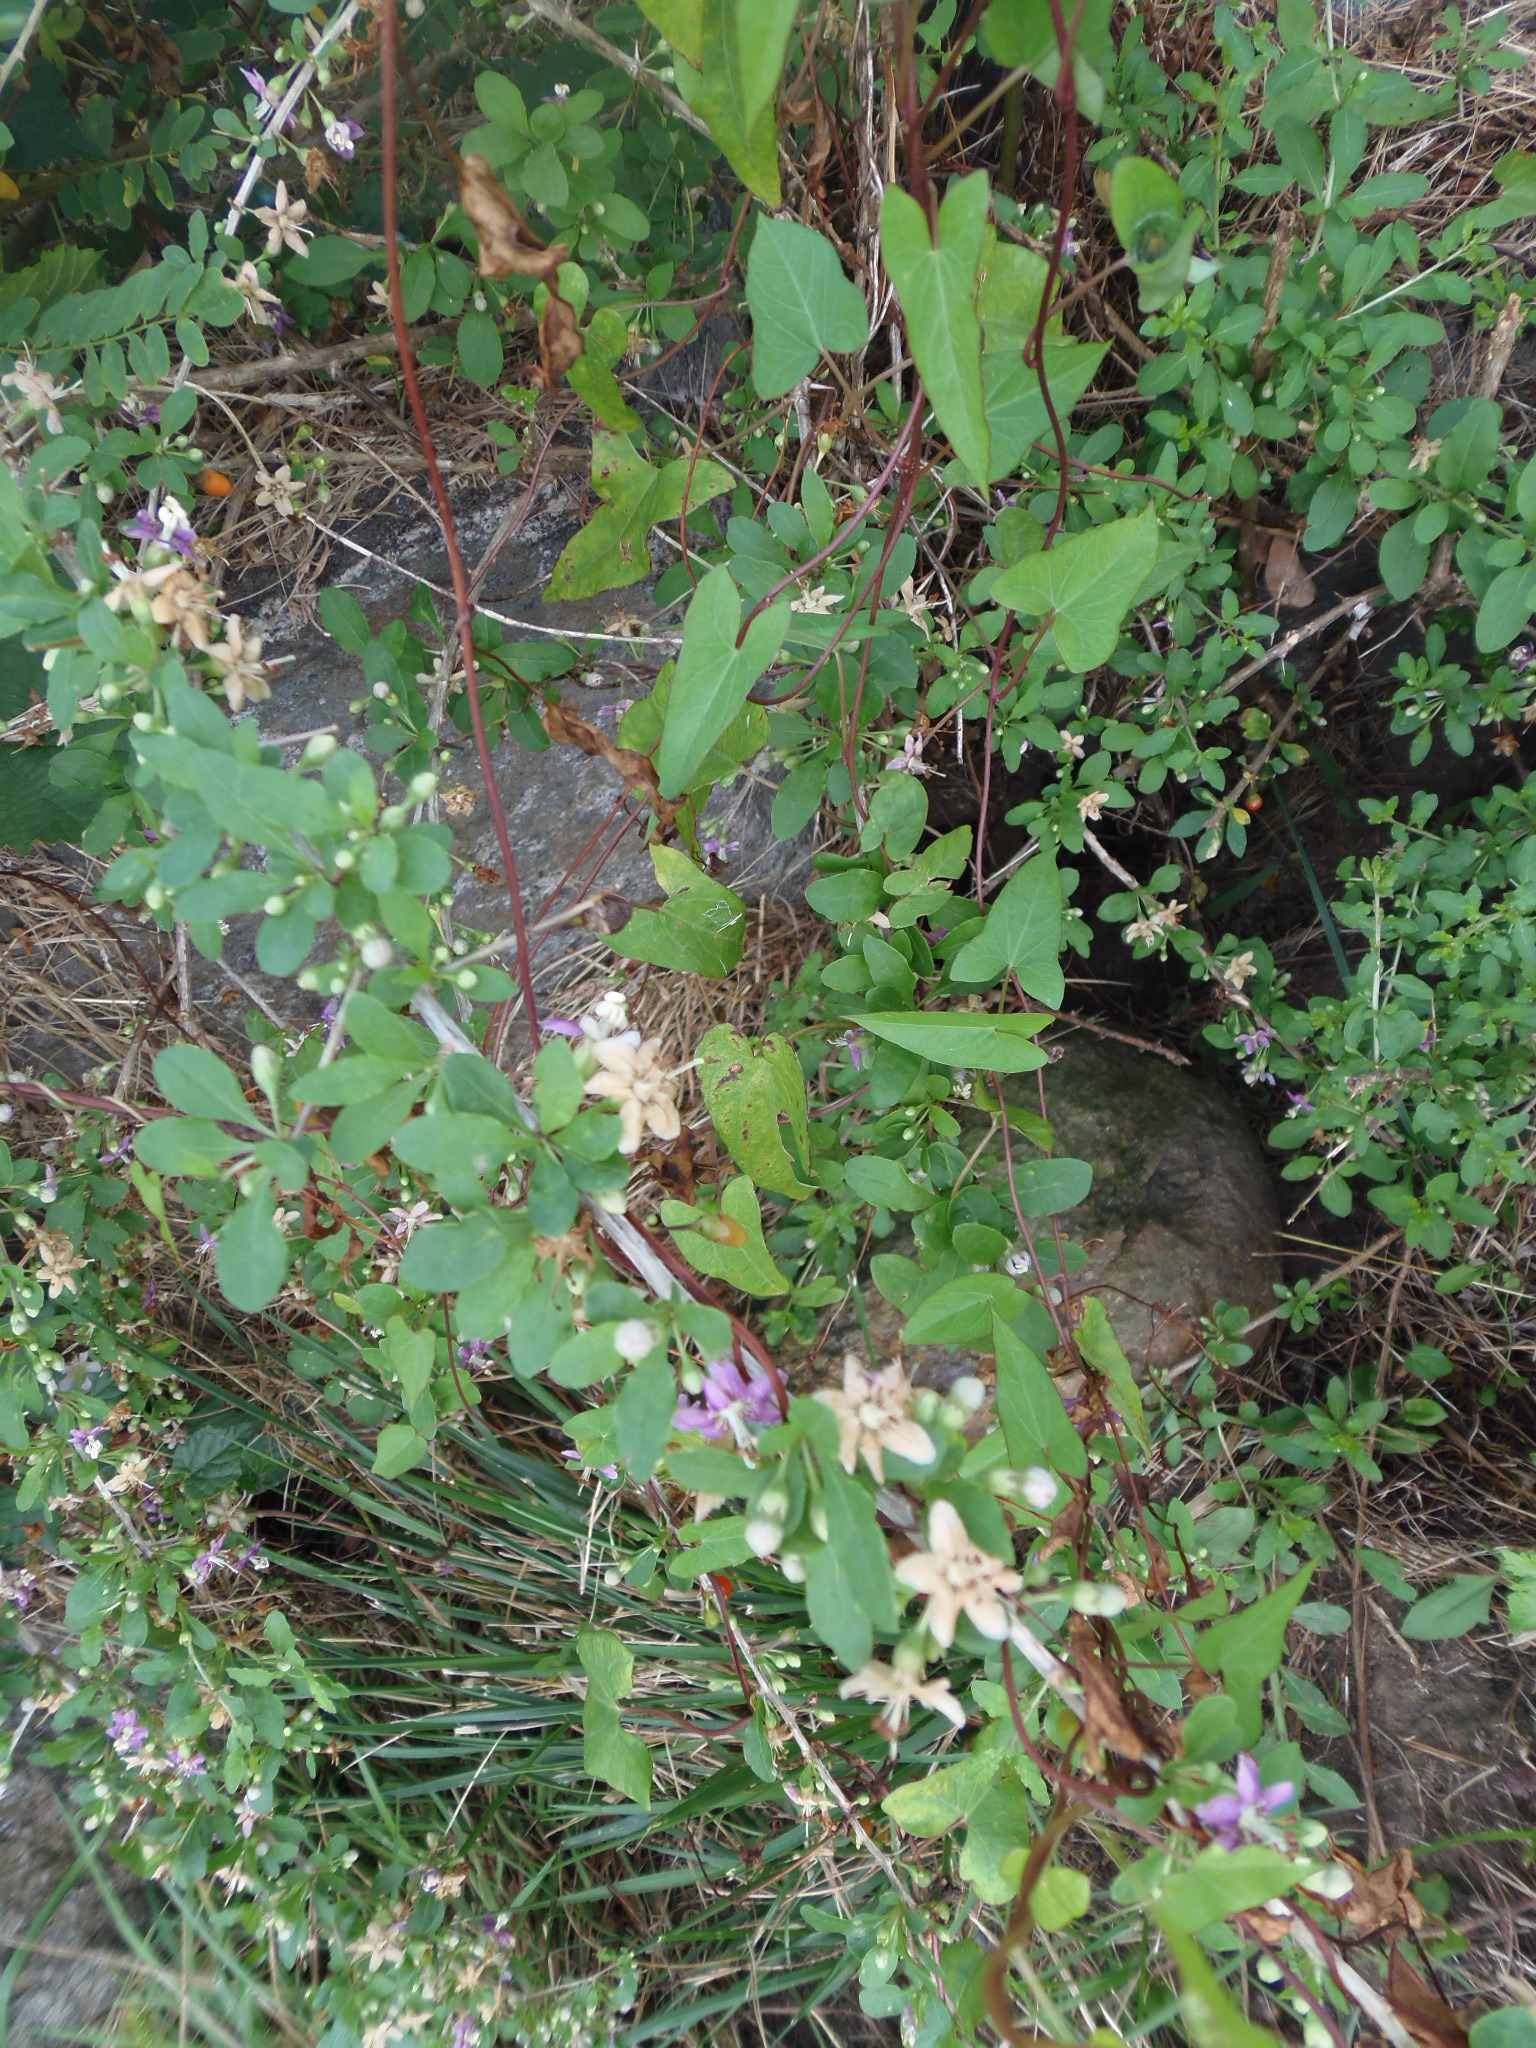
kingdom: Plantae
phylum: Tracheophyta
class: Magnoliopsida
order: Solanales
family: Solanaceae
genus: Lycium
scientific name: Lycium barbarum
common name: Duke of argyll's teaplant
